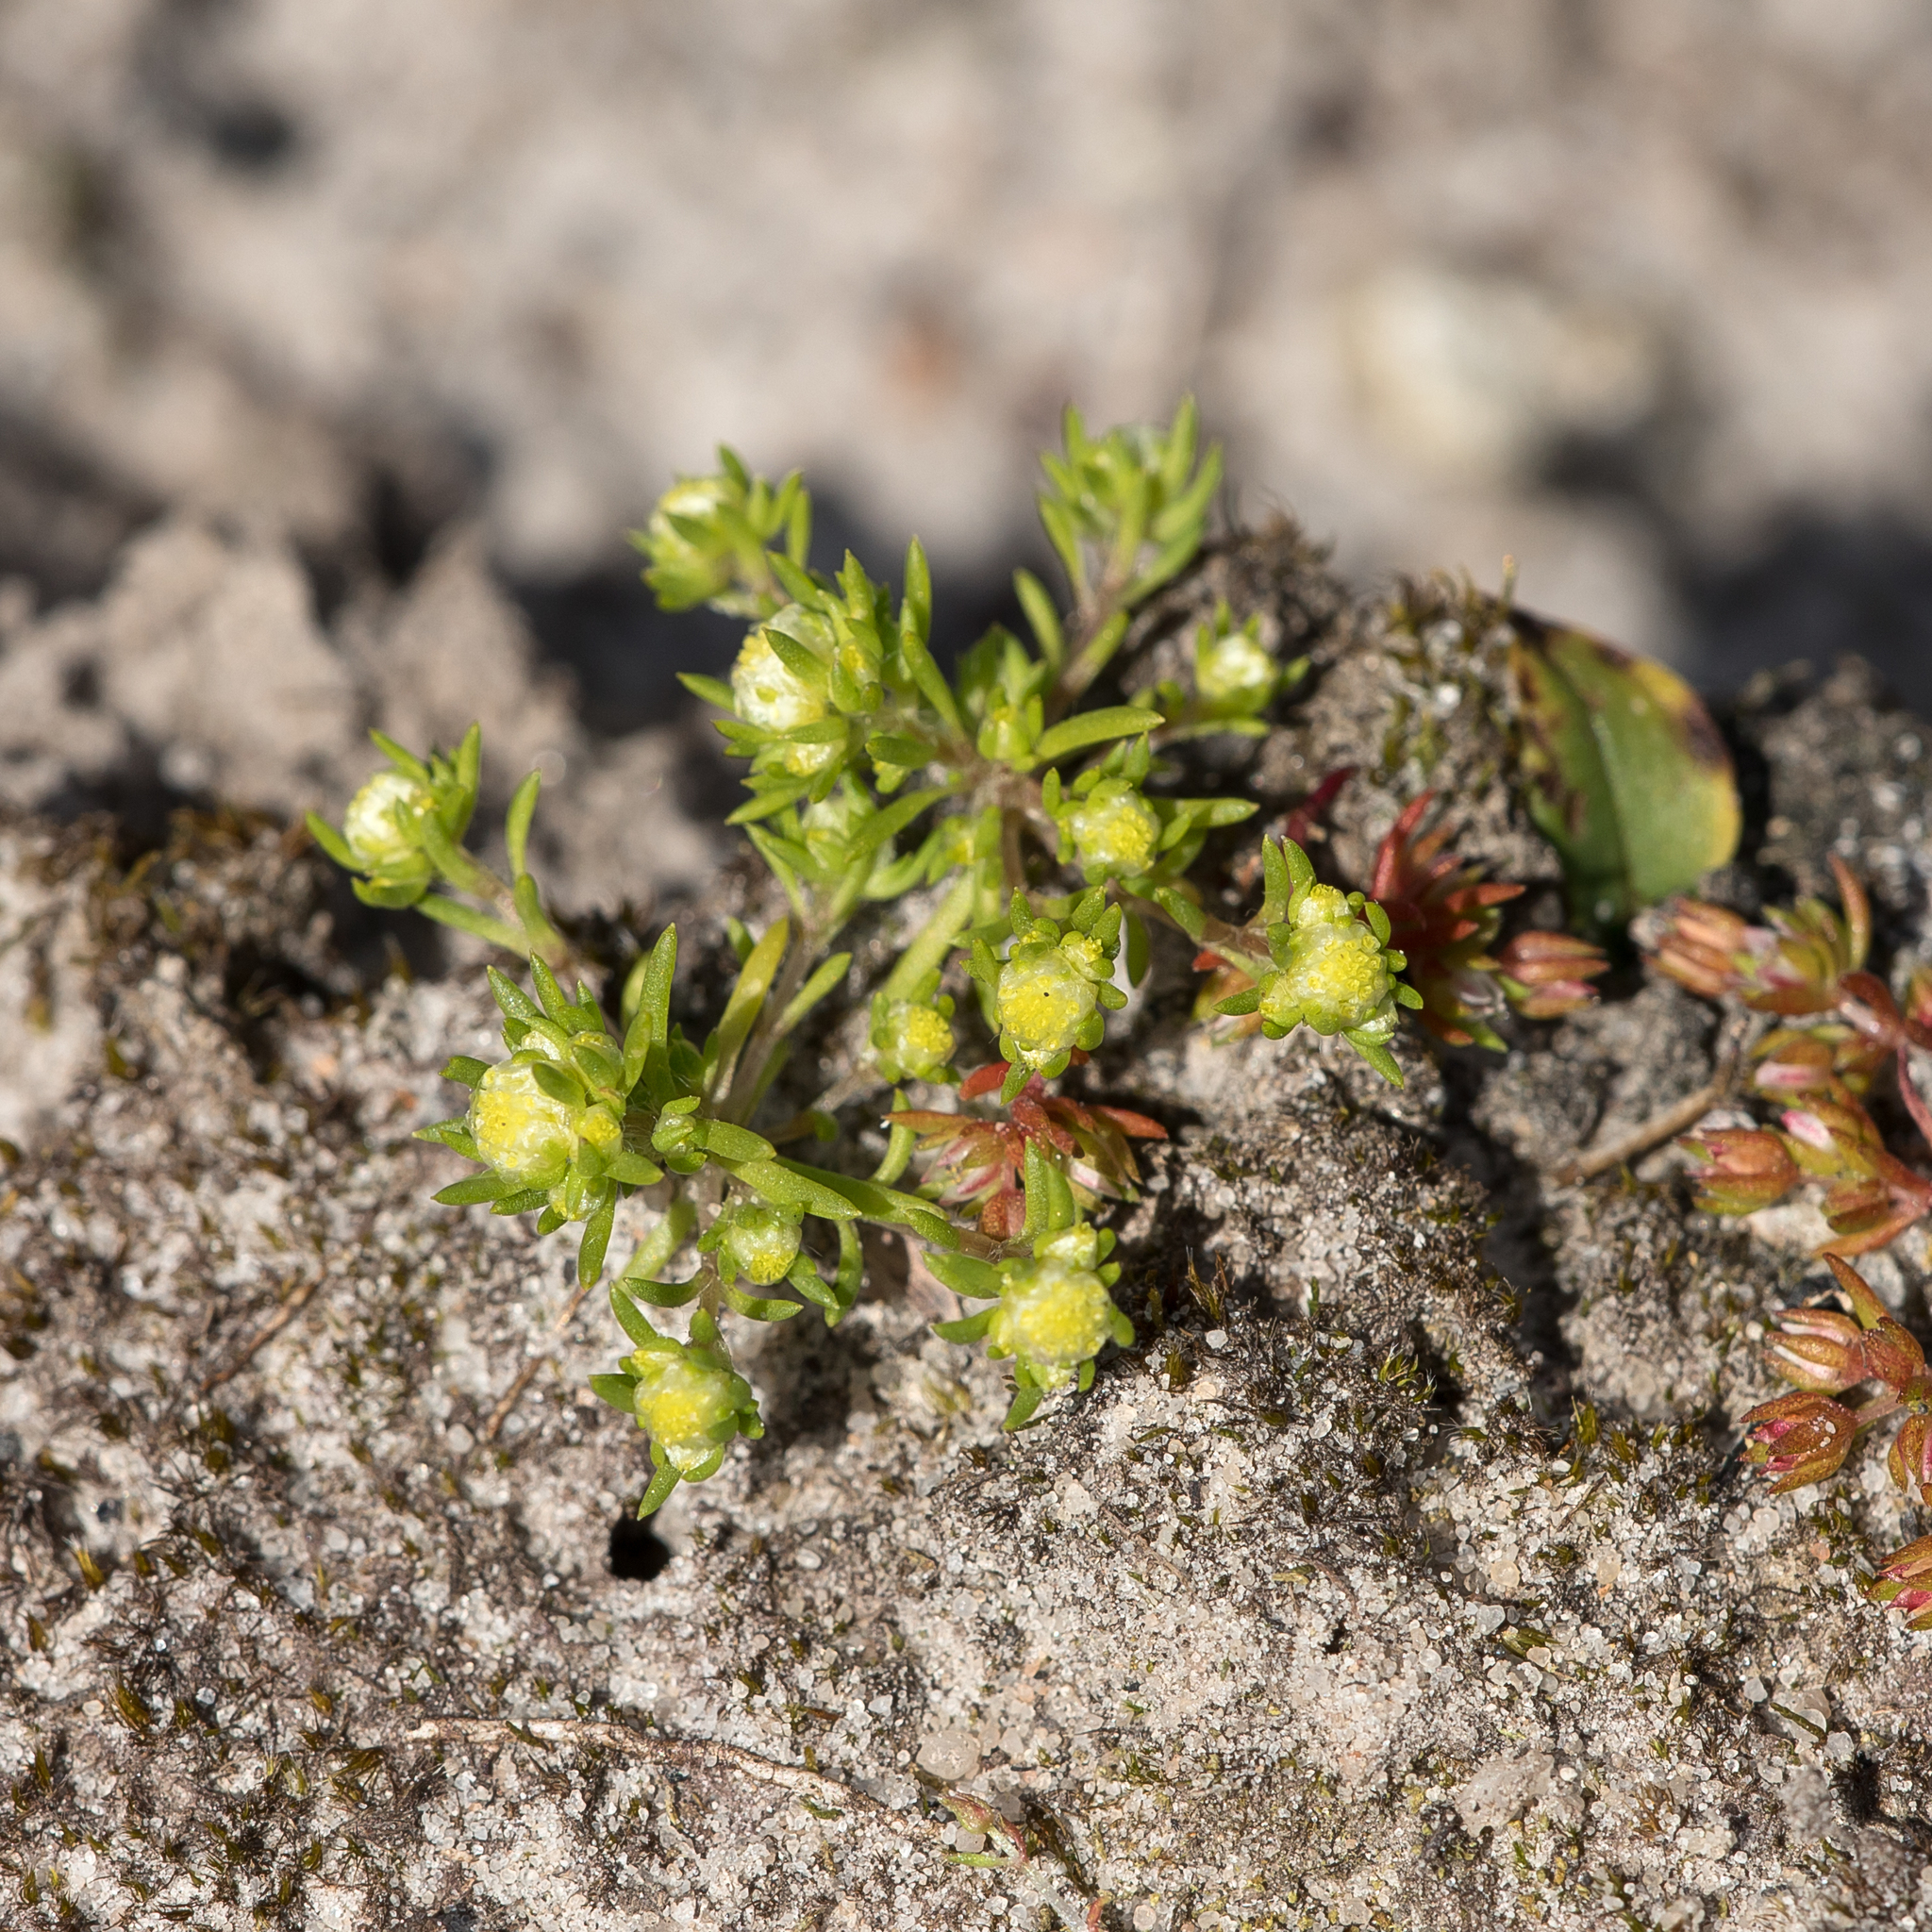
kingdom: Plantae
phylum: Tracheophyta
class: Magnoliopsida
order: Asterales
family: Asteraceae
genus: Siloxerus
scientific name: Siloxerus multiflorus
